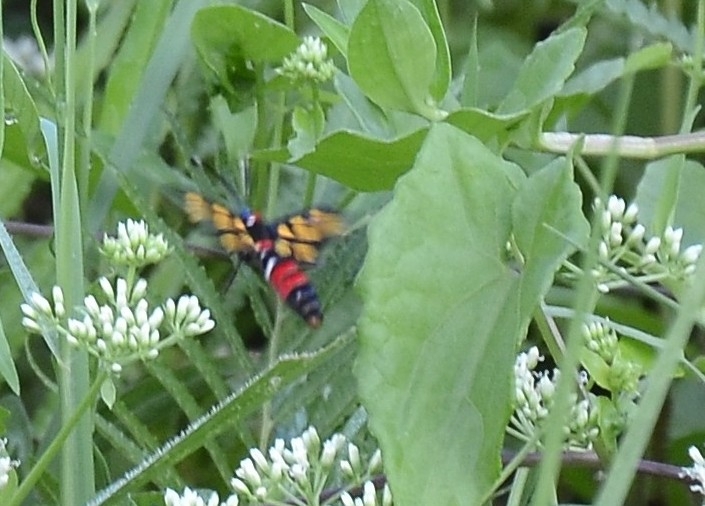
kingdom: Animalia
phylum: Arthropoda
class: Insecta
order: Lepidoptera
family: Erebidae
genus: Euchromia
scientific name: Euchromia polymena
